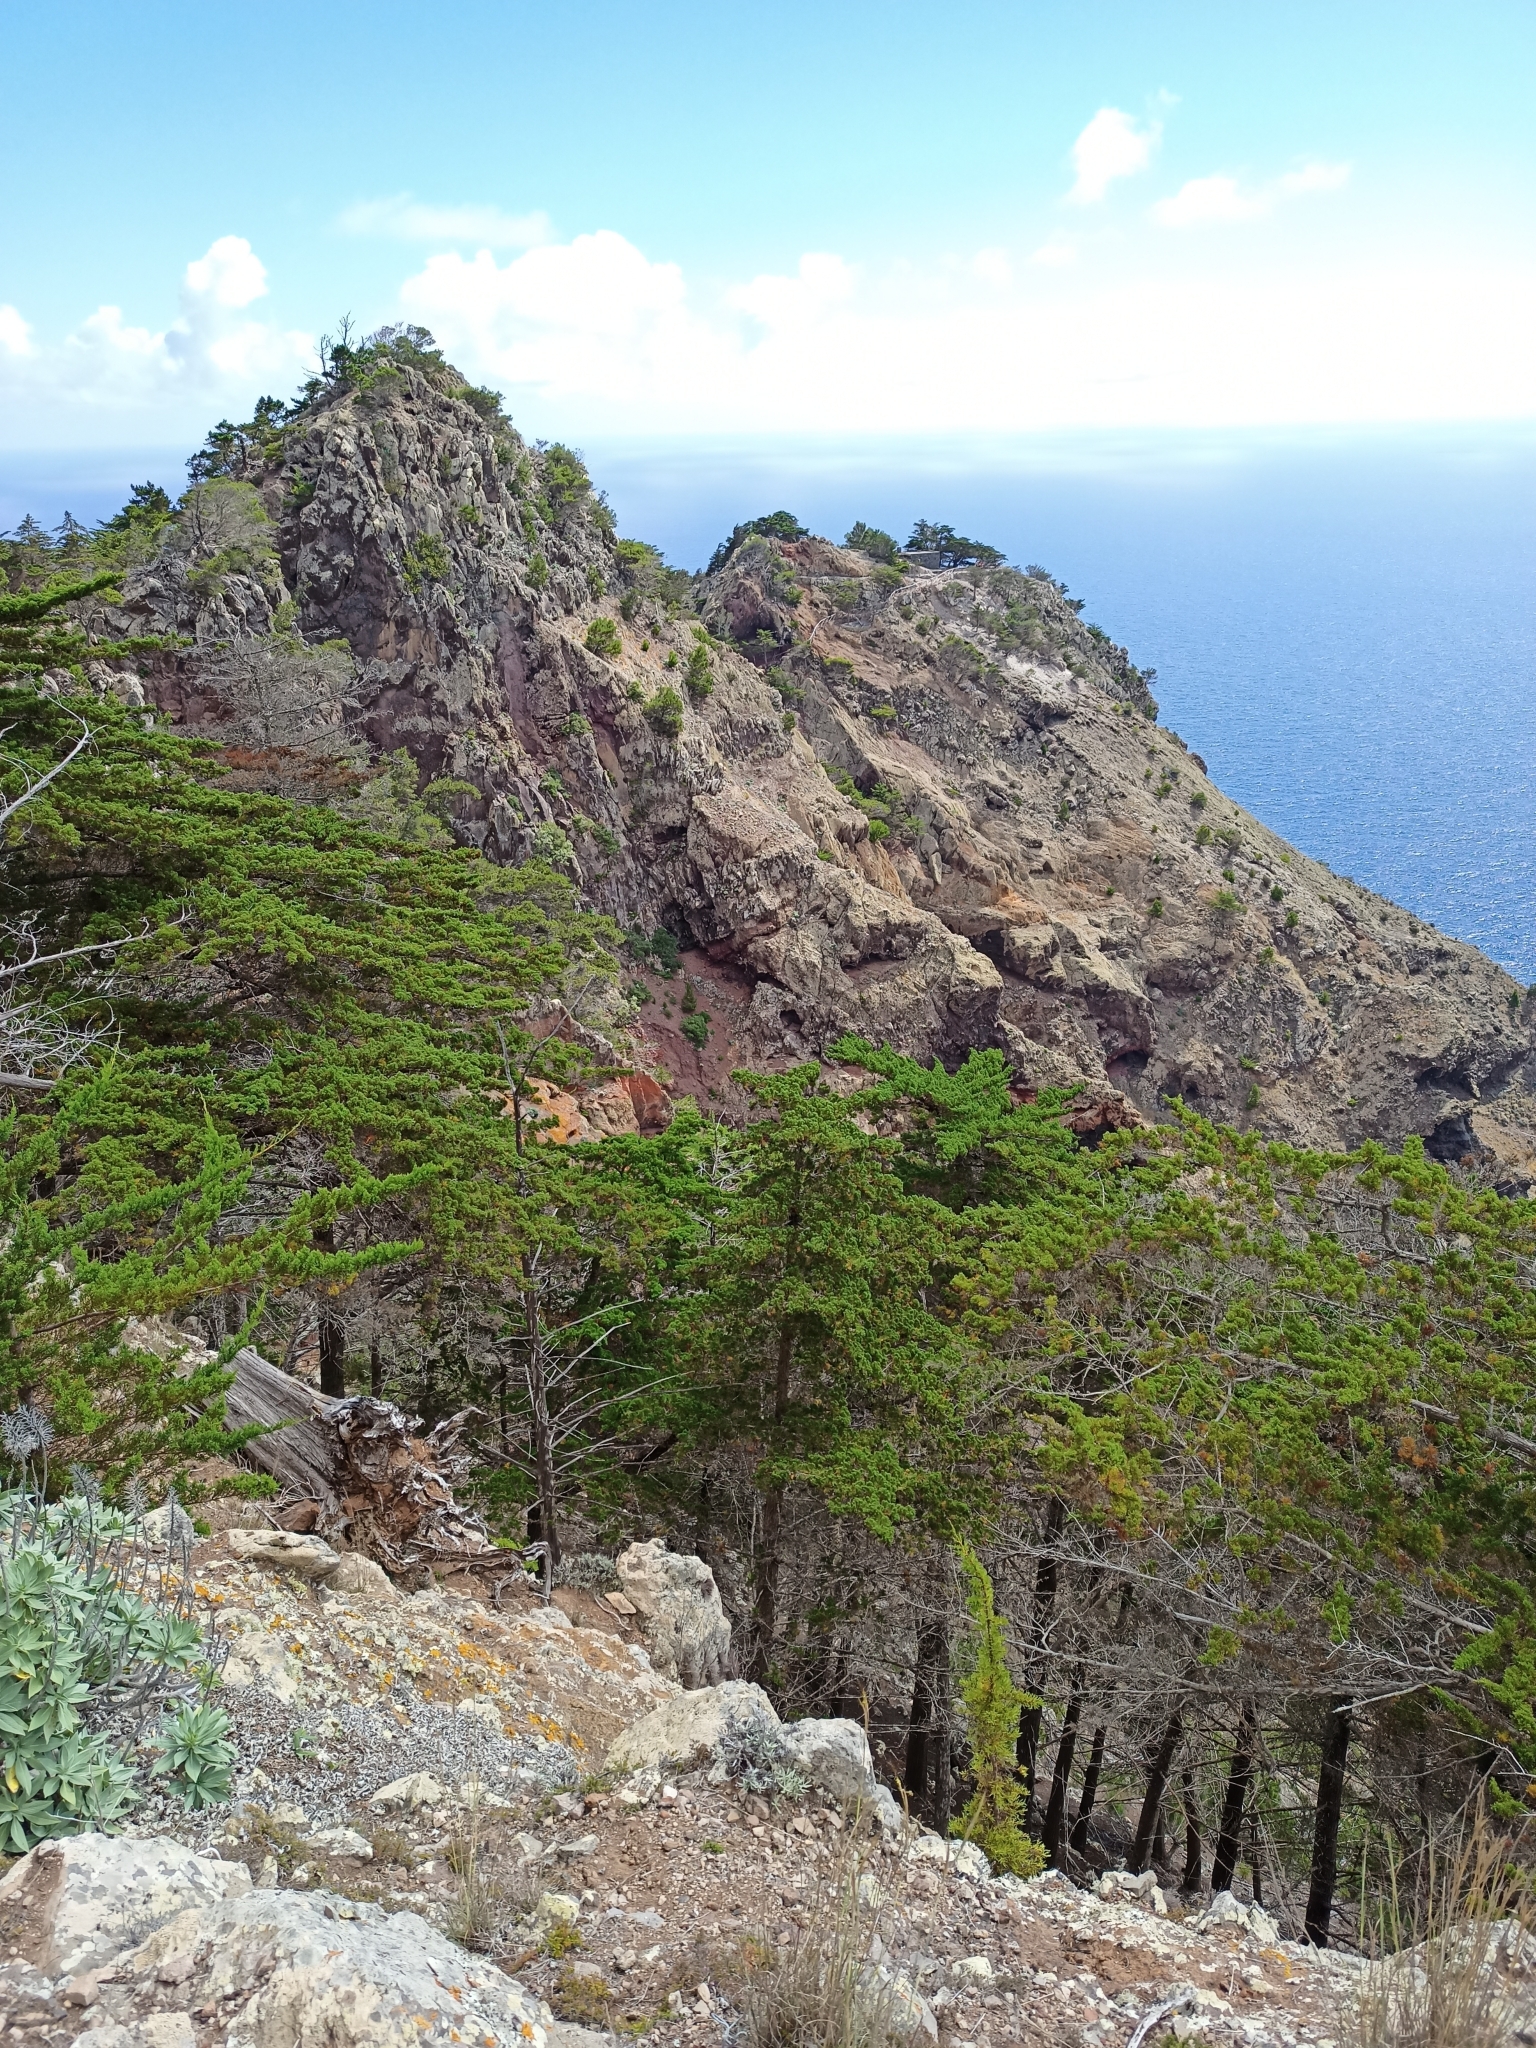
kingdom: Plantae
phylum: Tracheophyta
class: Pinopsida
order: Pinales
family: Cupressaceae
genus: Cupressus
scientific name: Cupressus macrocarpa
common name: Monterey cypress
